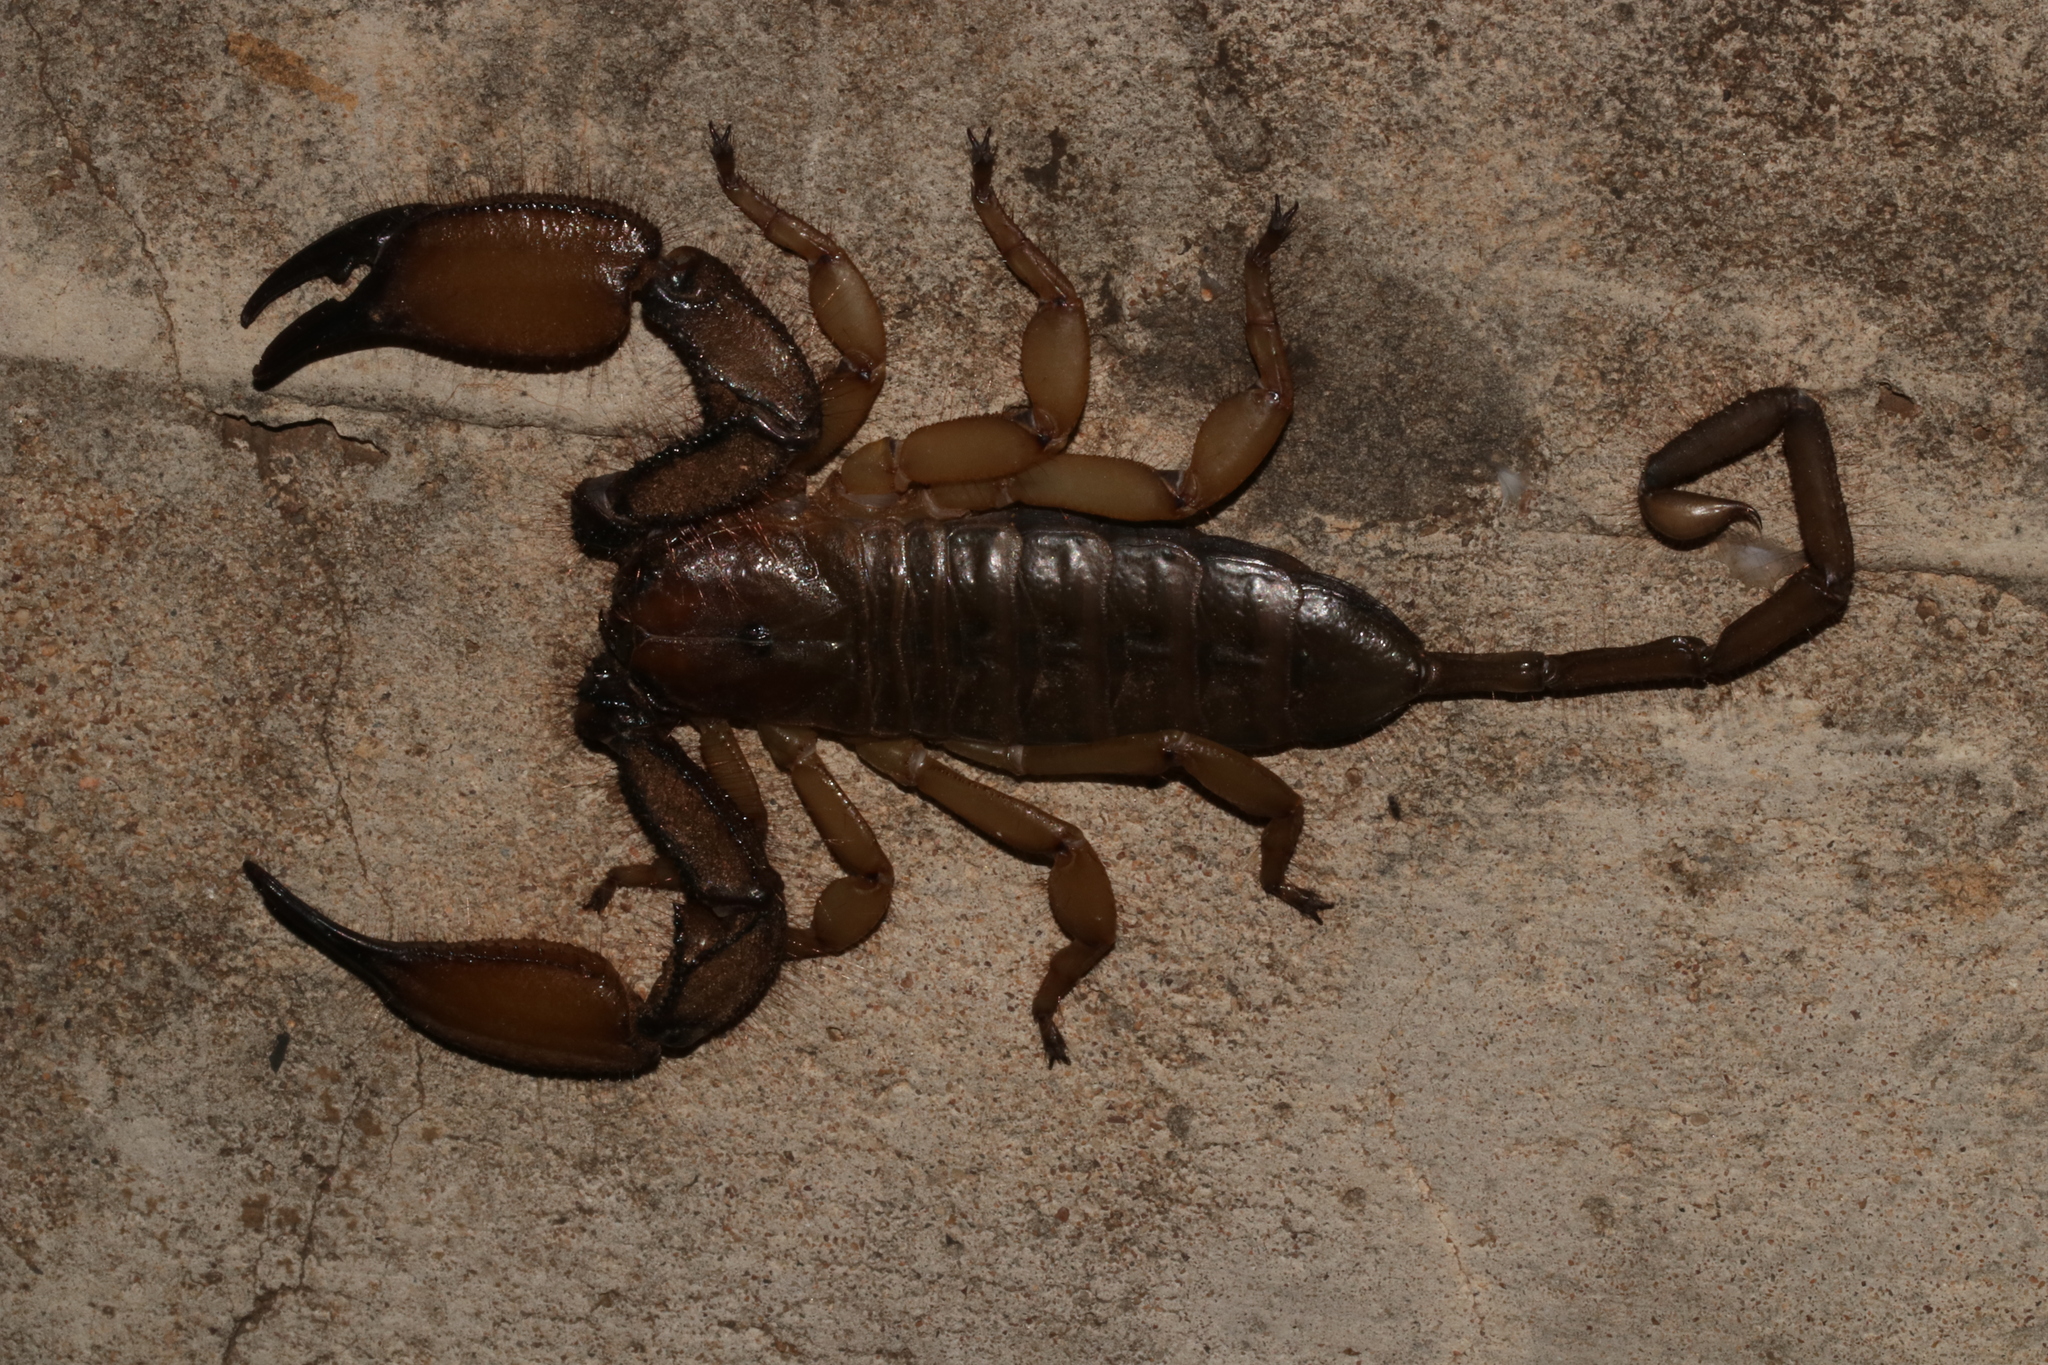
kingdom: Animalia
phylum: Arthropoda
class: Arachnida
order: Scorpiones
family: Hormuridae
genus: Hadogenes
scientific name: Hadogenes soutpansbergensis
